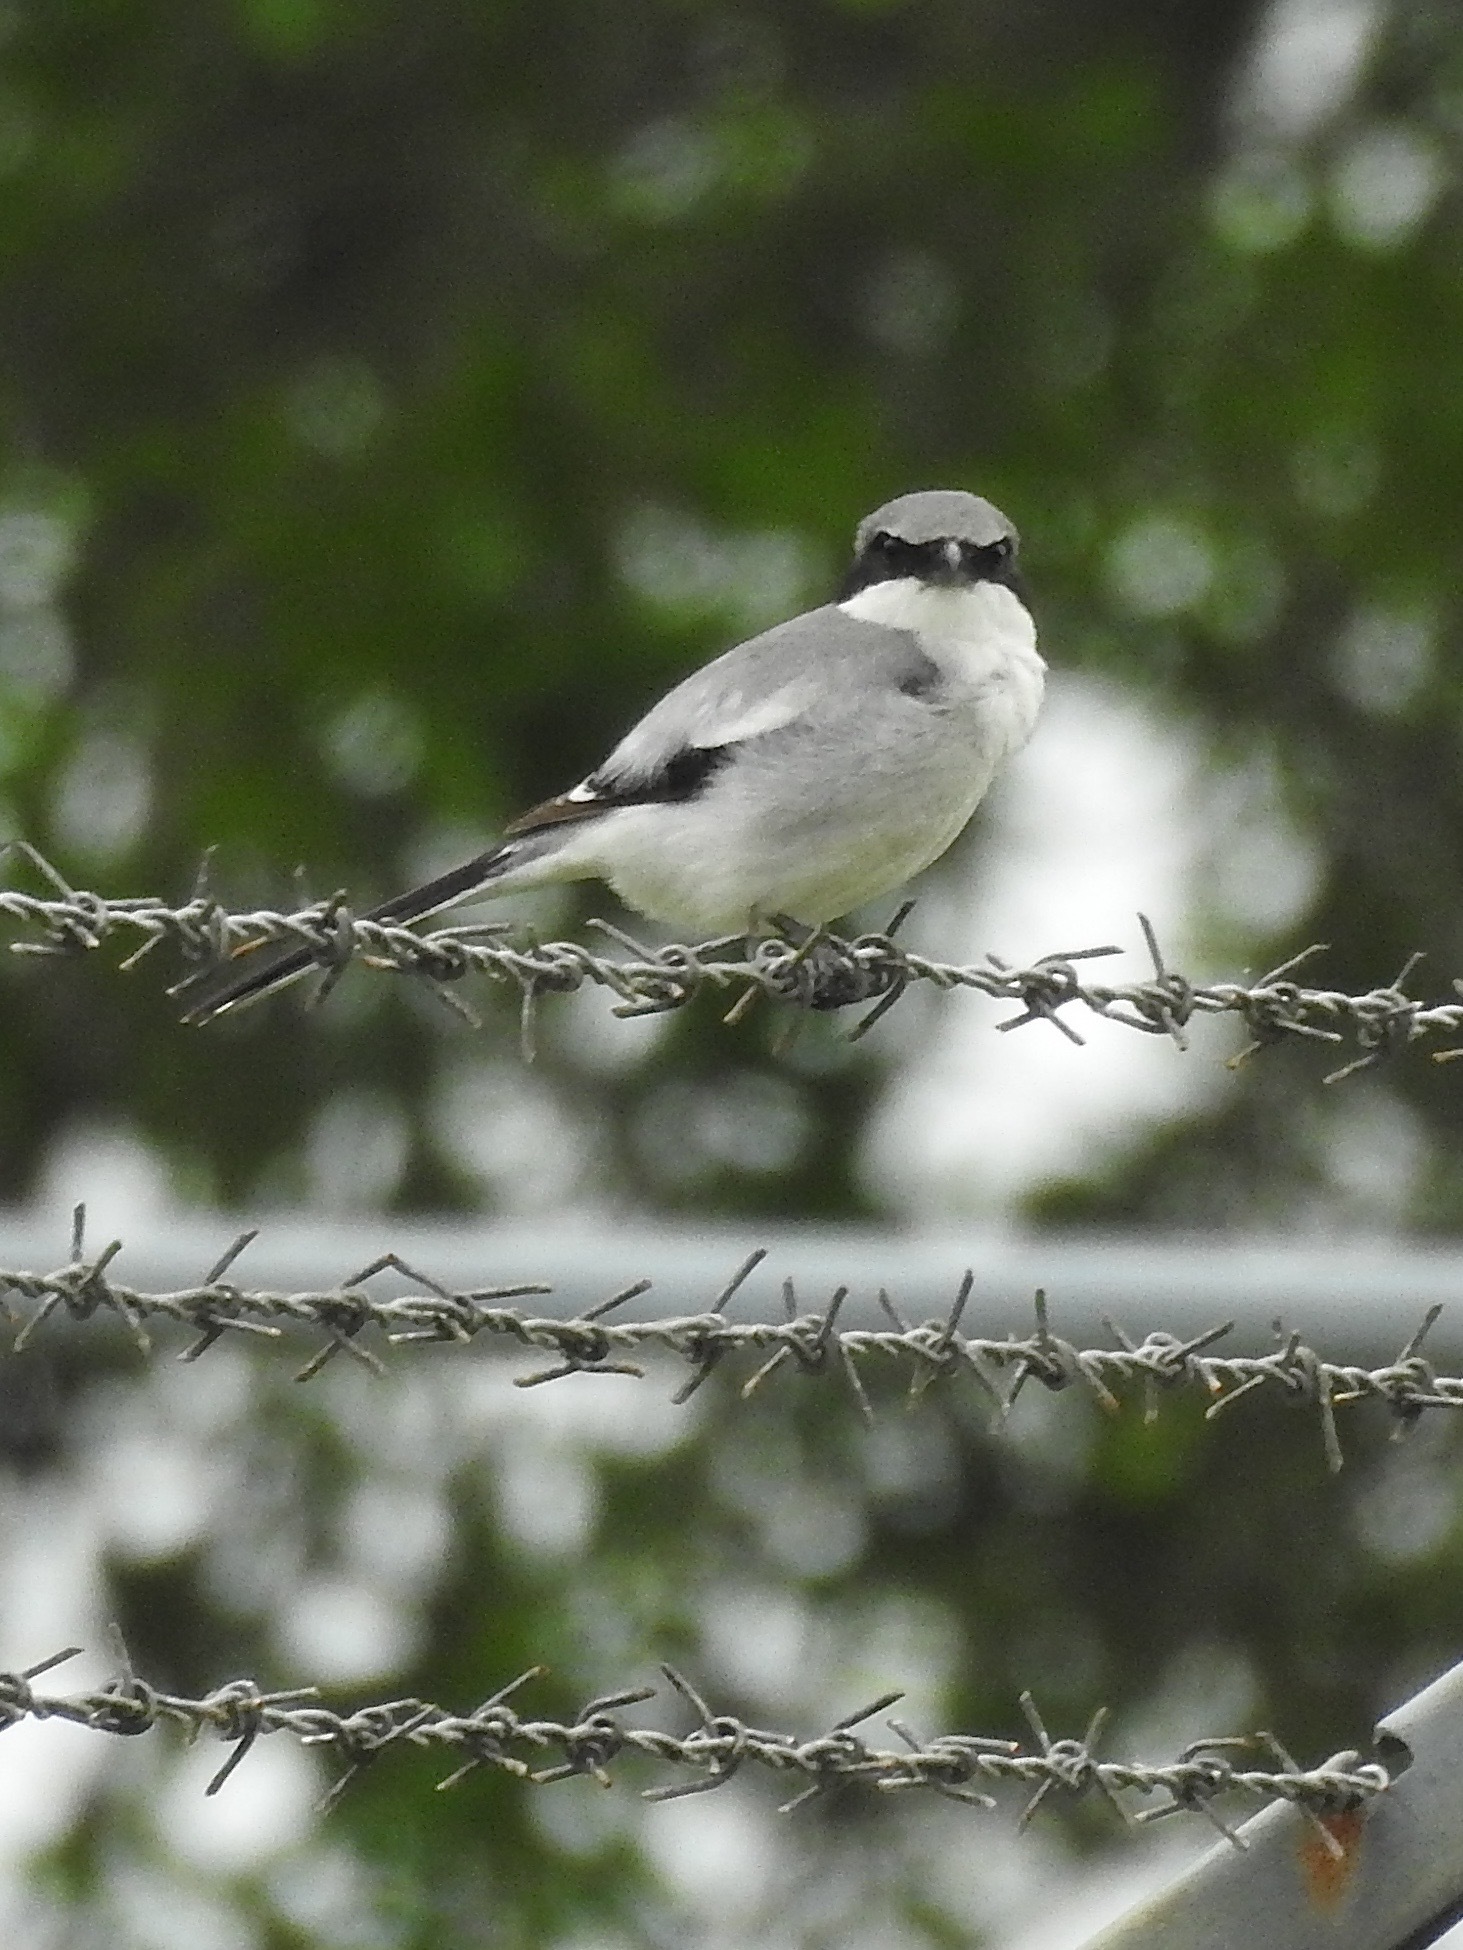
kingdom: Animalia
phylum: Chordata
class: Aves
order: Passeriformes
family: Laniidae
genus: Lanius
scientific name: Lanius ludovicianus
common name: Loggerhead shrike
